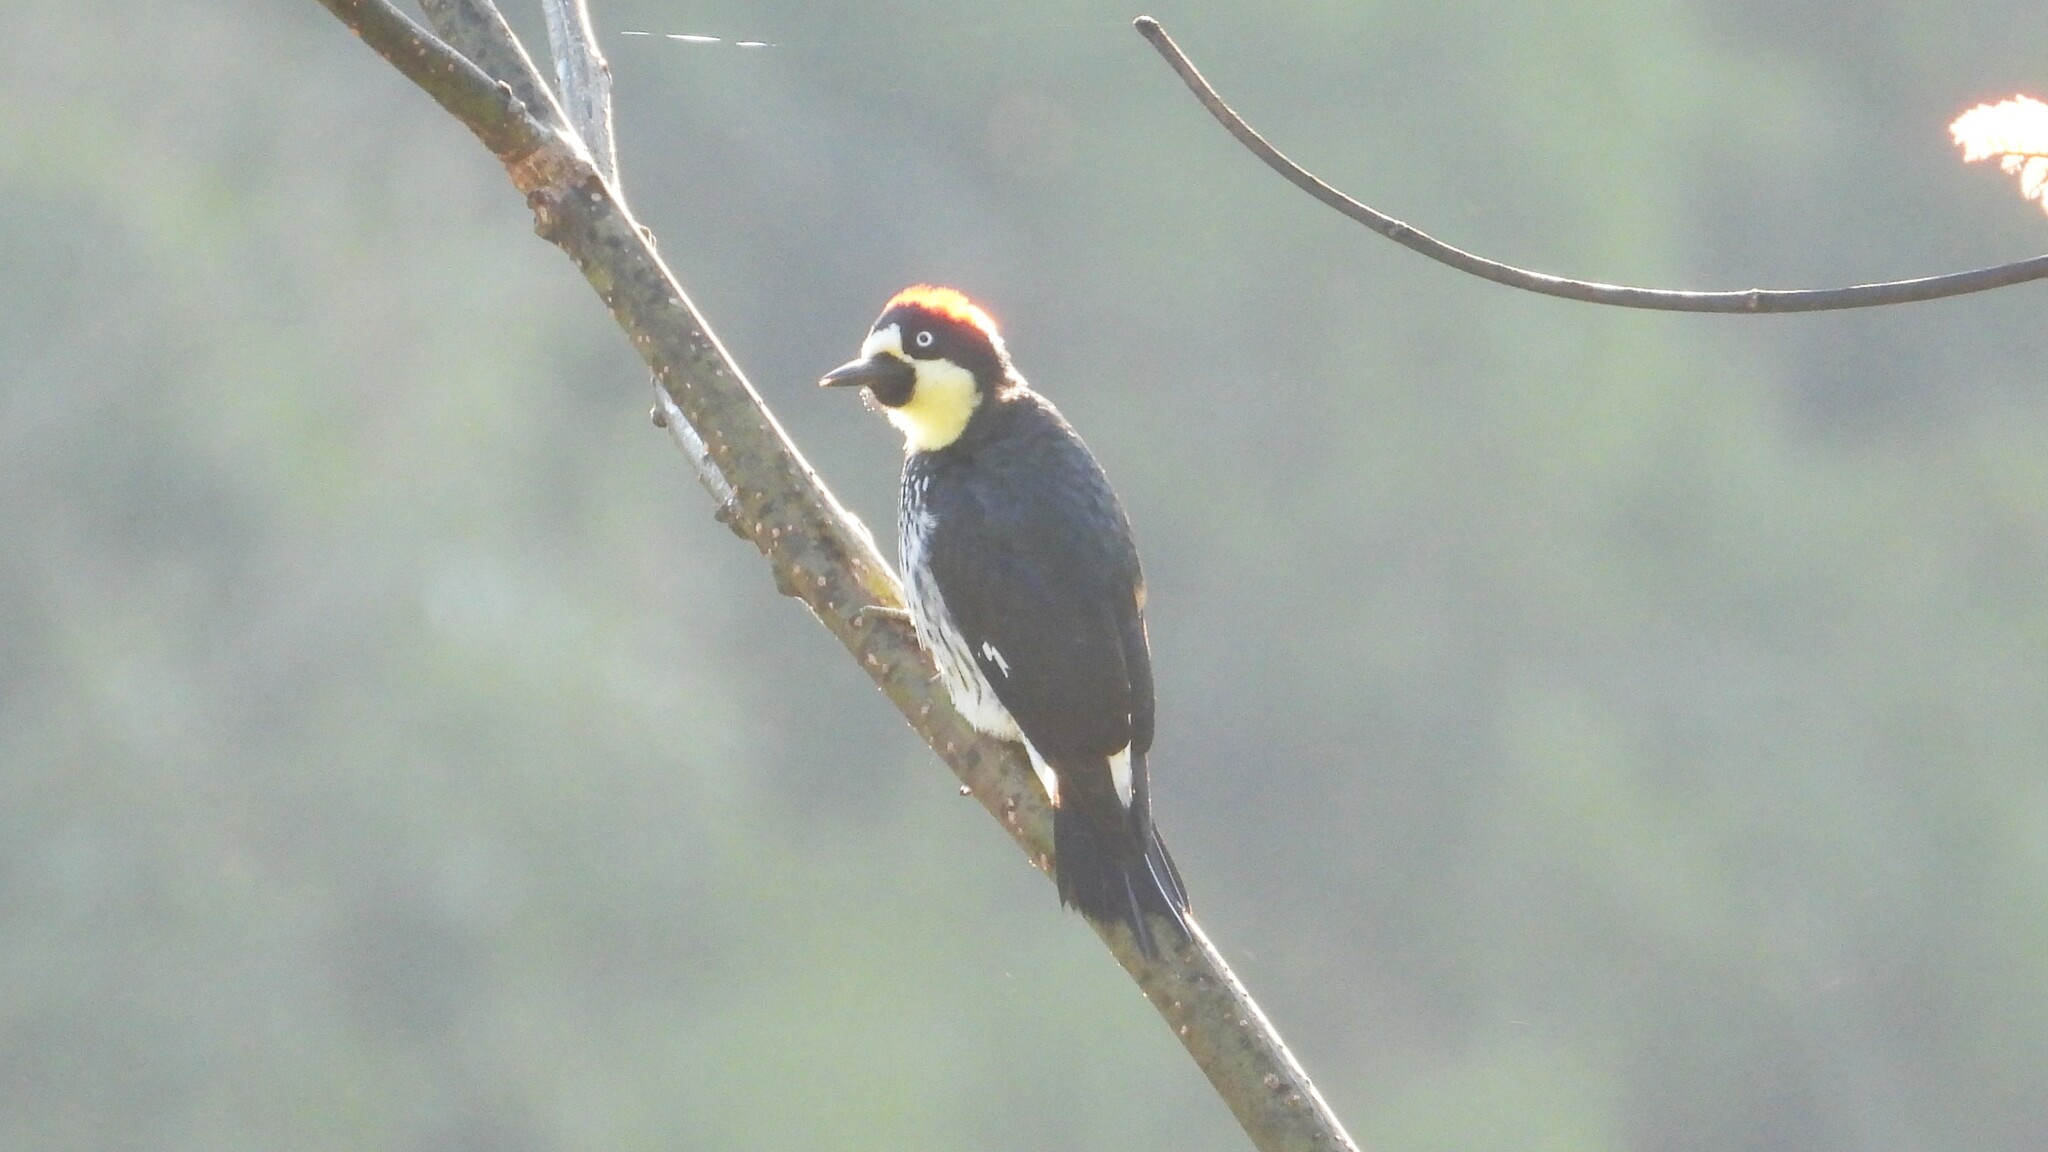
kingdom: Animalia
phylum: Chordata
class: Aves
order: Piciformes
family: Picidae
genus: Melanerpes
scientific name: Melanerpes formicivorus
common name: Acorn woodpecker
